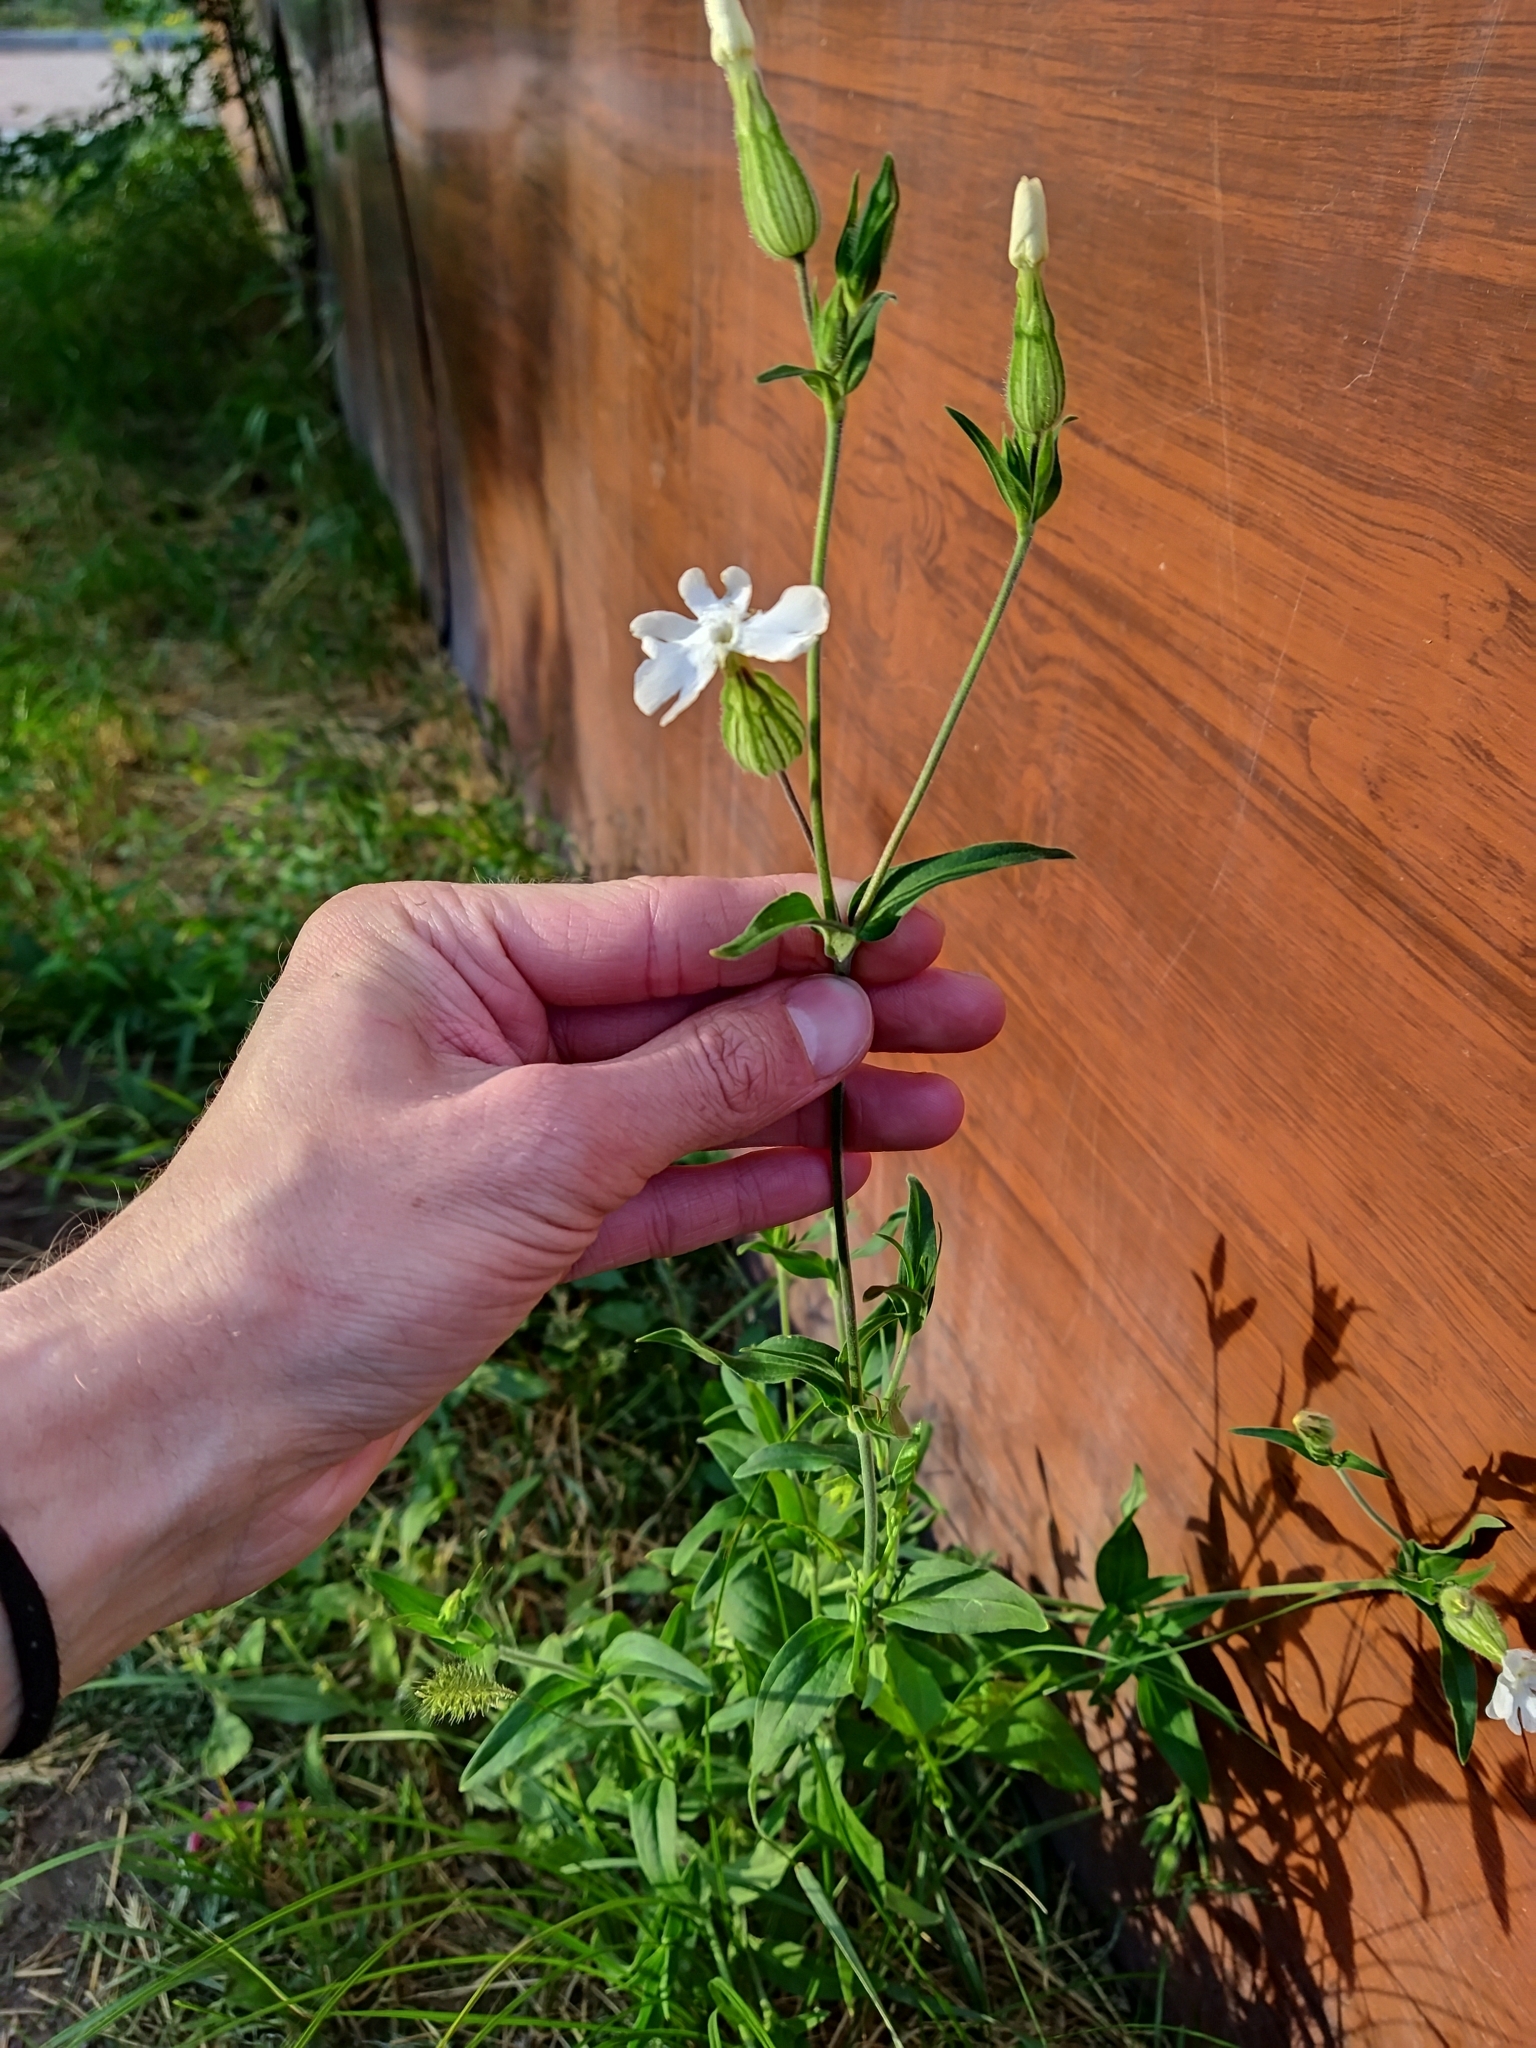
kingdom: Plantae
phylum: Tracheophyta
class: Magnoliopsida
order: Caryophyllales
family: Caryophyllaceae
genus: Silene
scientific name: Silene latifolia
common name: White campion
